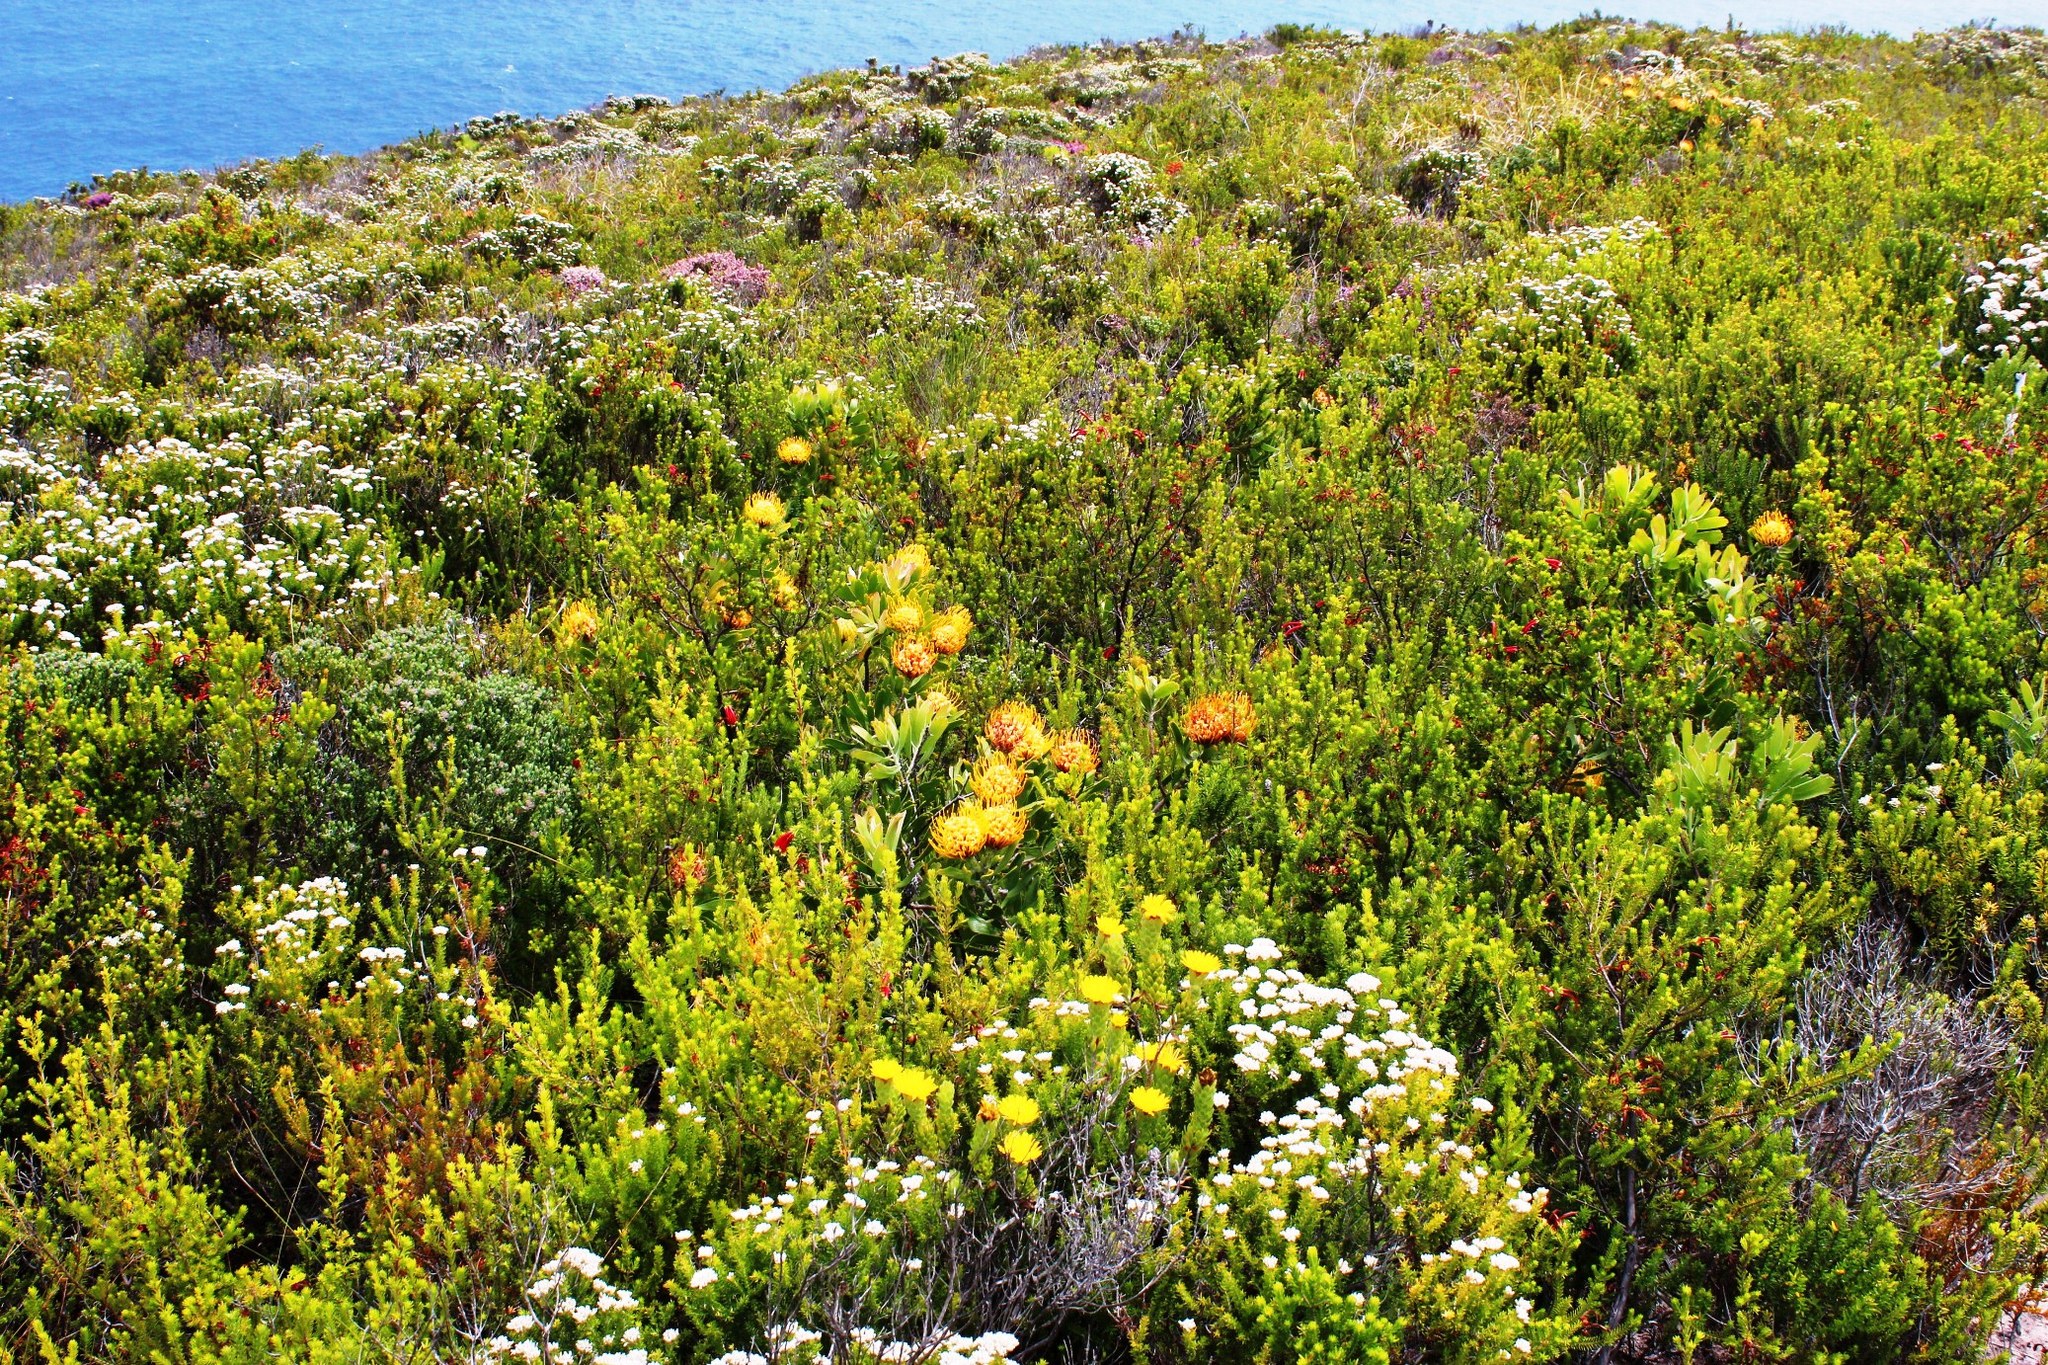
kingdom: Plantae
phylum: Tracheophyta
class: Magnoliopsida
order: Proteales
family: Proteaceae
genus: Leucospermum
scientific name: Leucospermum cuneiforme
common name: Common pincushion
